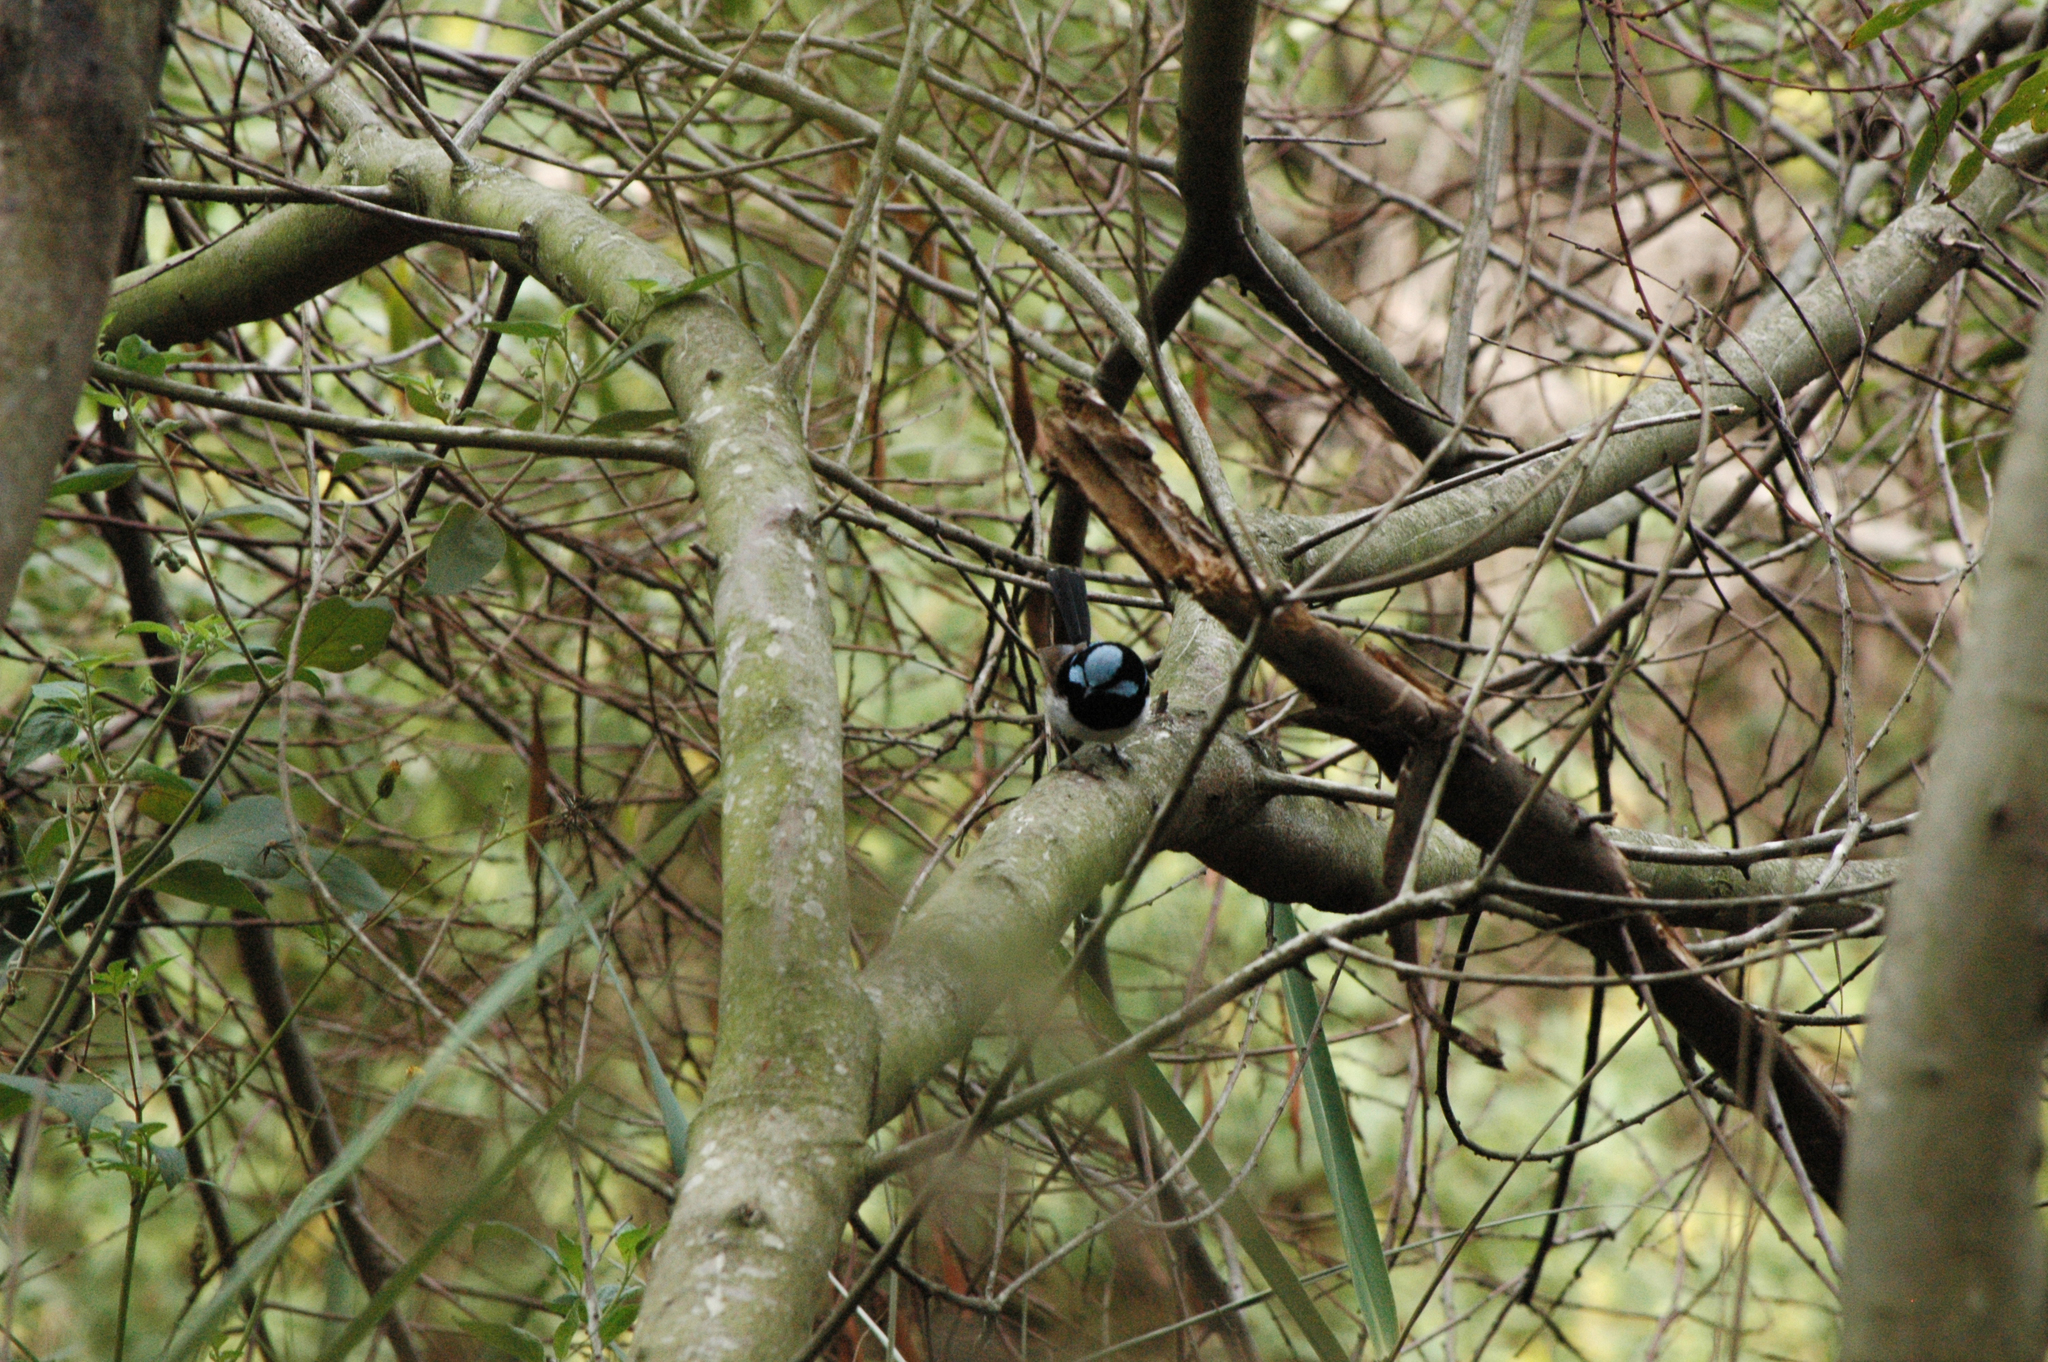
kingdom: Animalia
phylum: Chordata
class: Aves
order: Passeriformes
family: Maluridae
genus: Malurus
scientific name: Malurus cyaneus
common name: Superb fairywren
